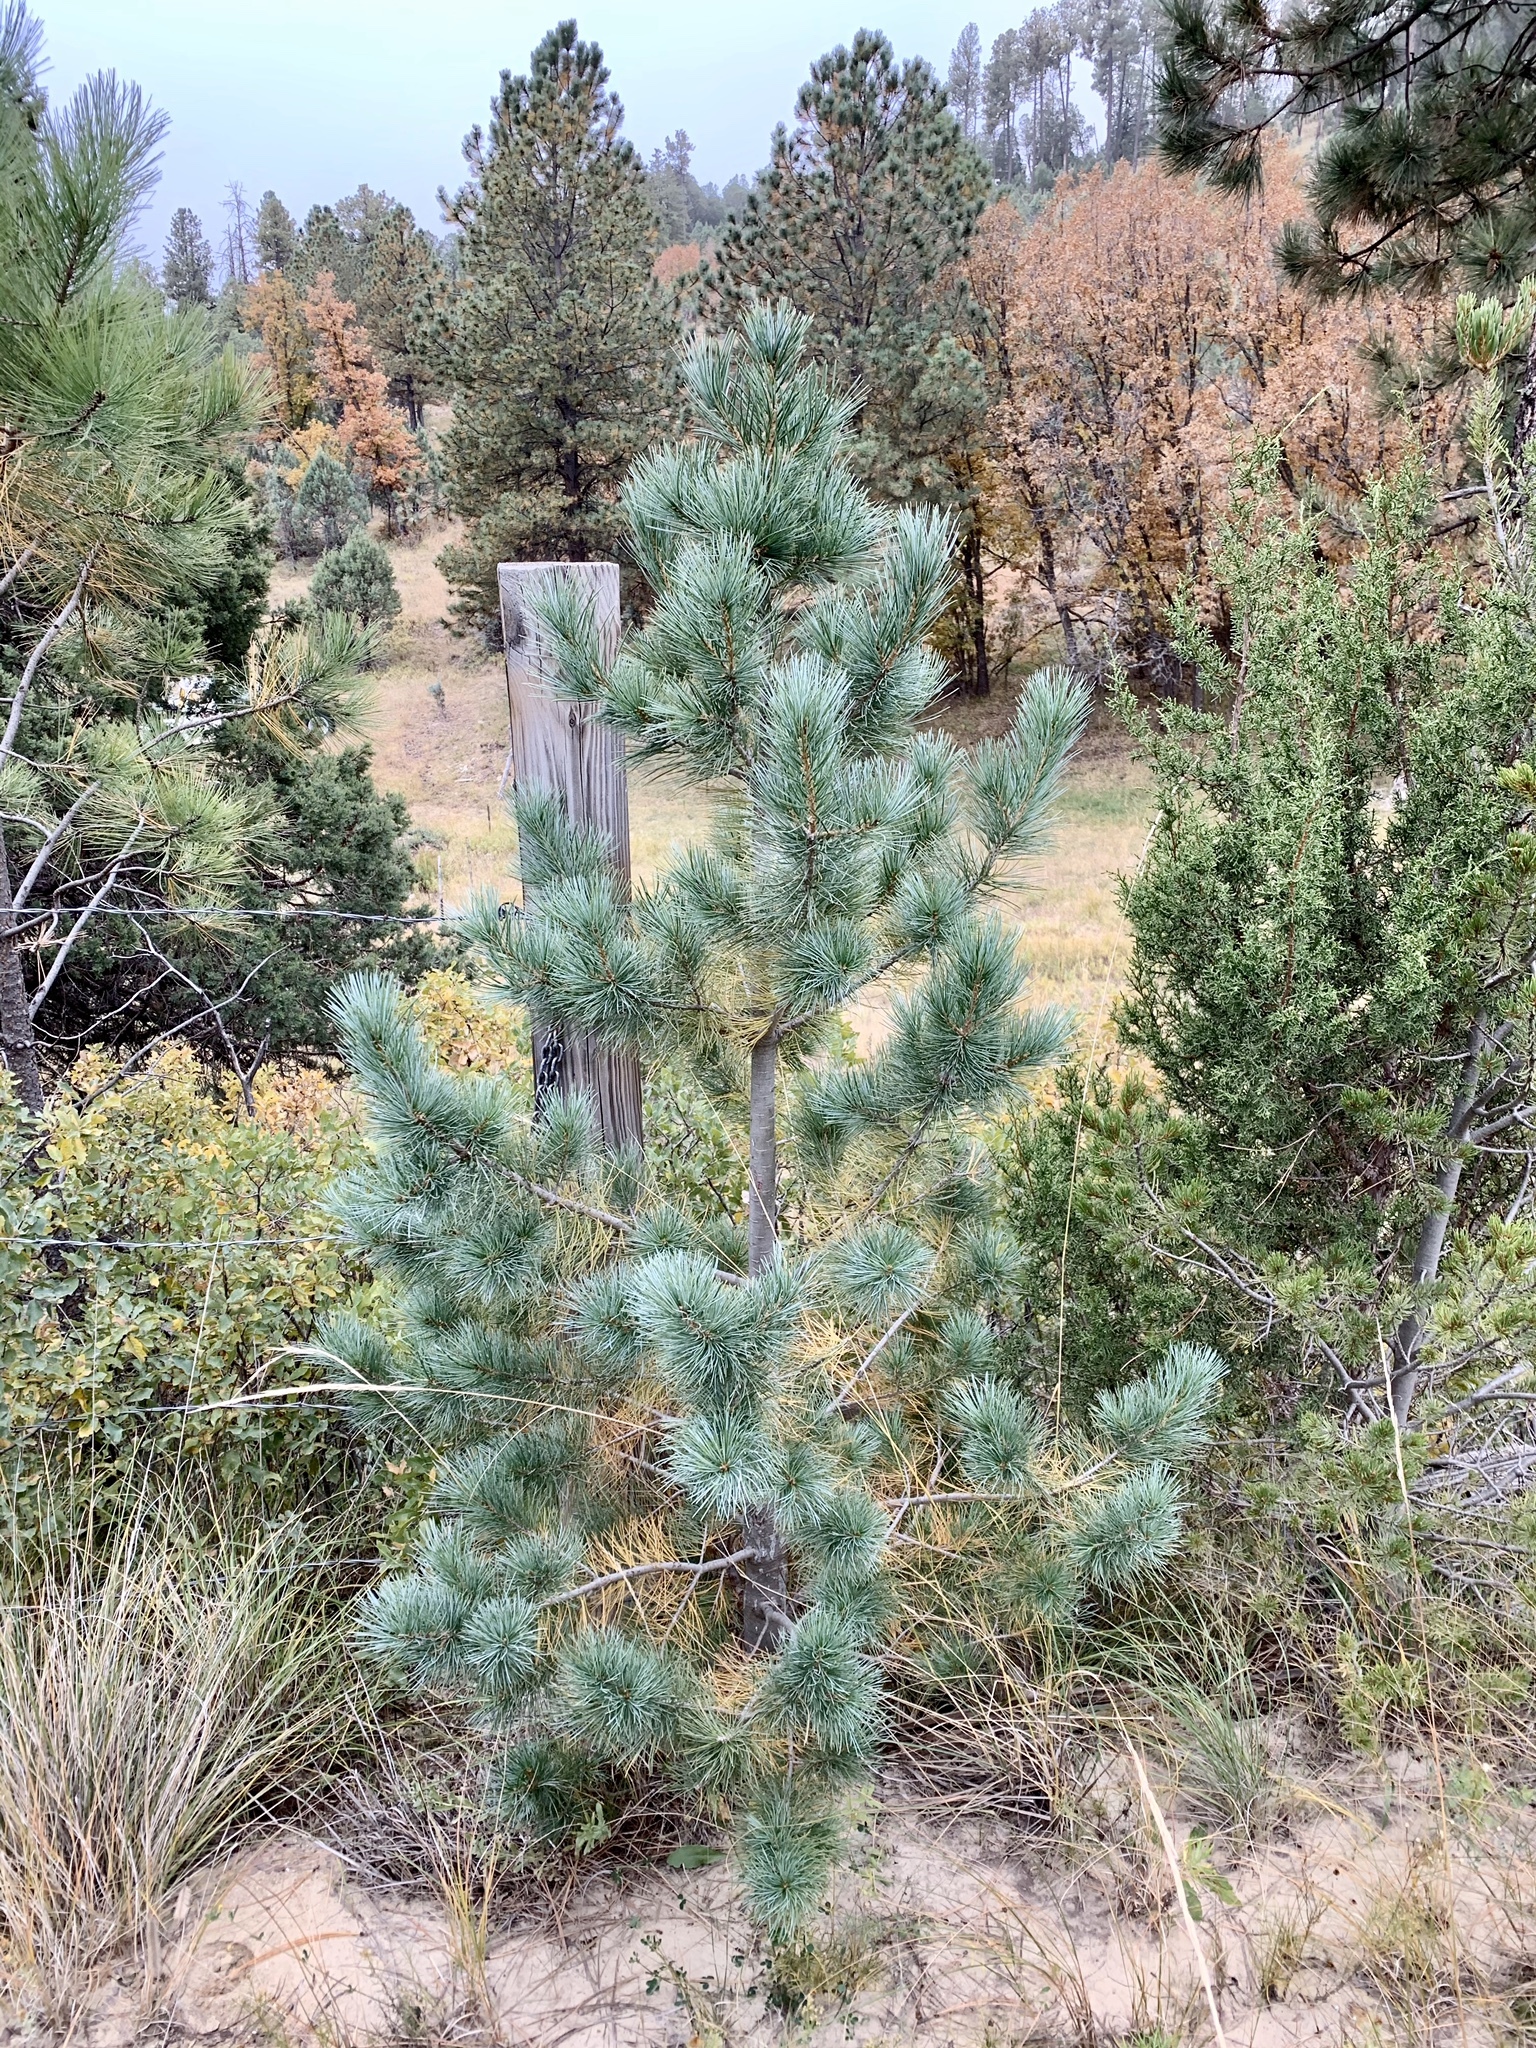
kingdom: Plantae
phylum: Tracheophyta
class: Pinopsida
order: Pinales
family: Pinaceae
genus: Pinus
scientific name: Pinus strobiformis
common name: Southwestern white pine
